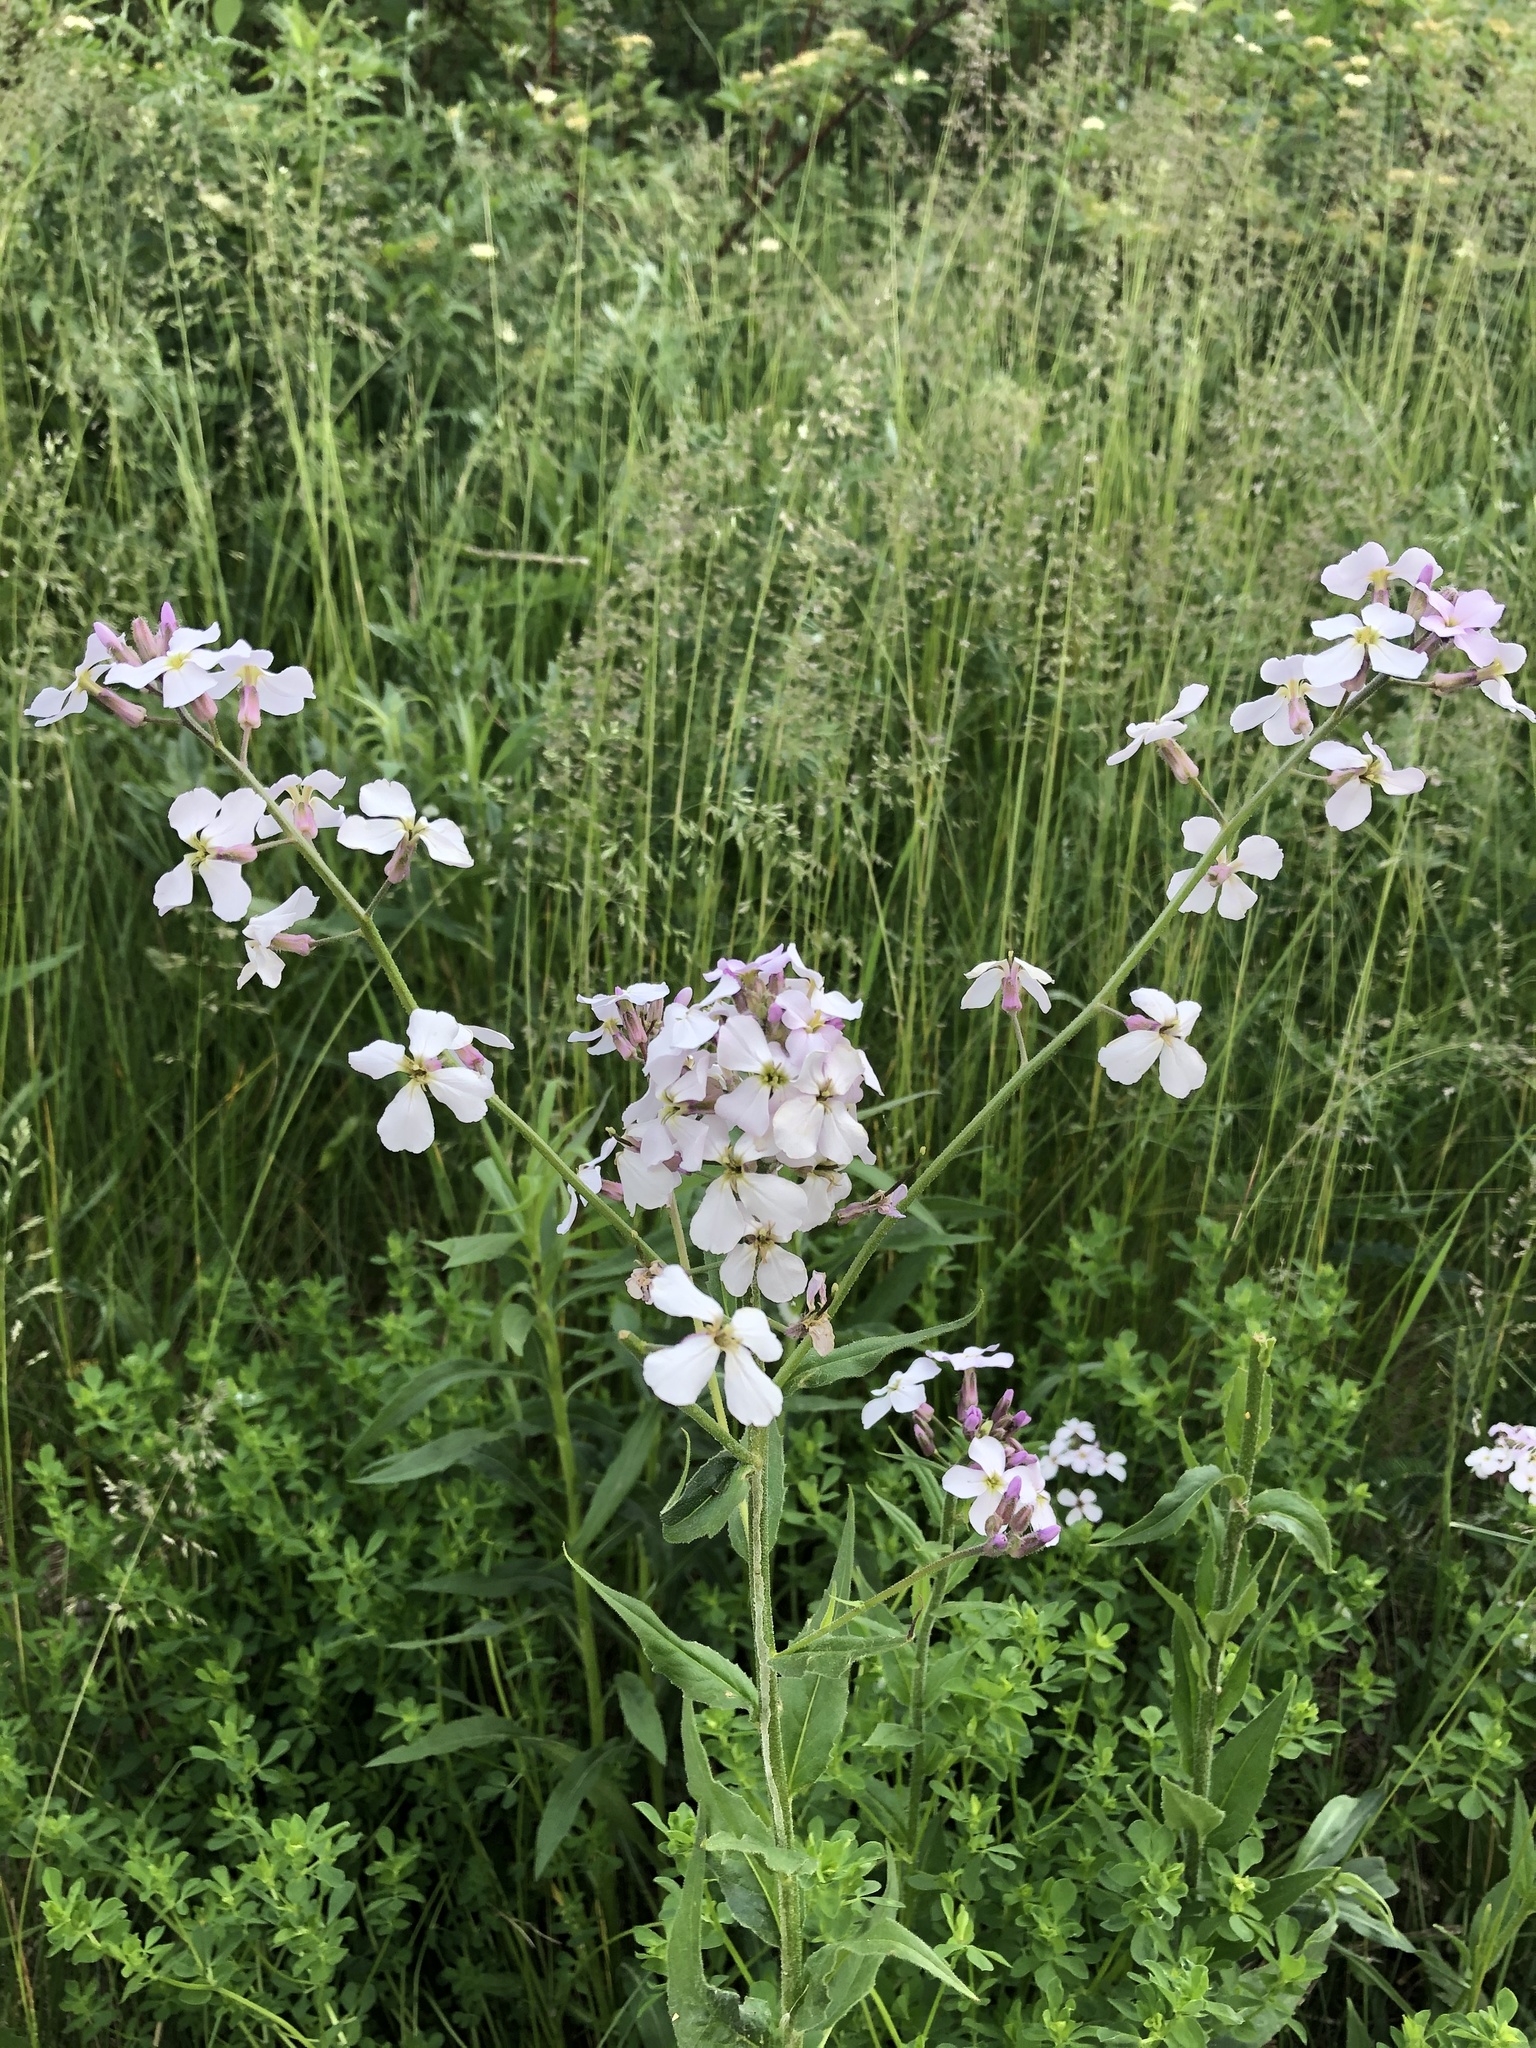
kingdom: Plantae
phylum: Tracheophyta
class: Magnoliopsida
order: Brassicales
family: Brassicaceae
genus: Hesperis
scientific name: Hesperis matronalis
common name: Dame's-violet
